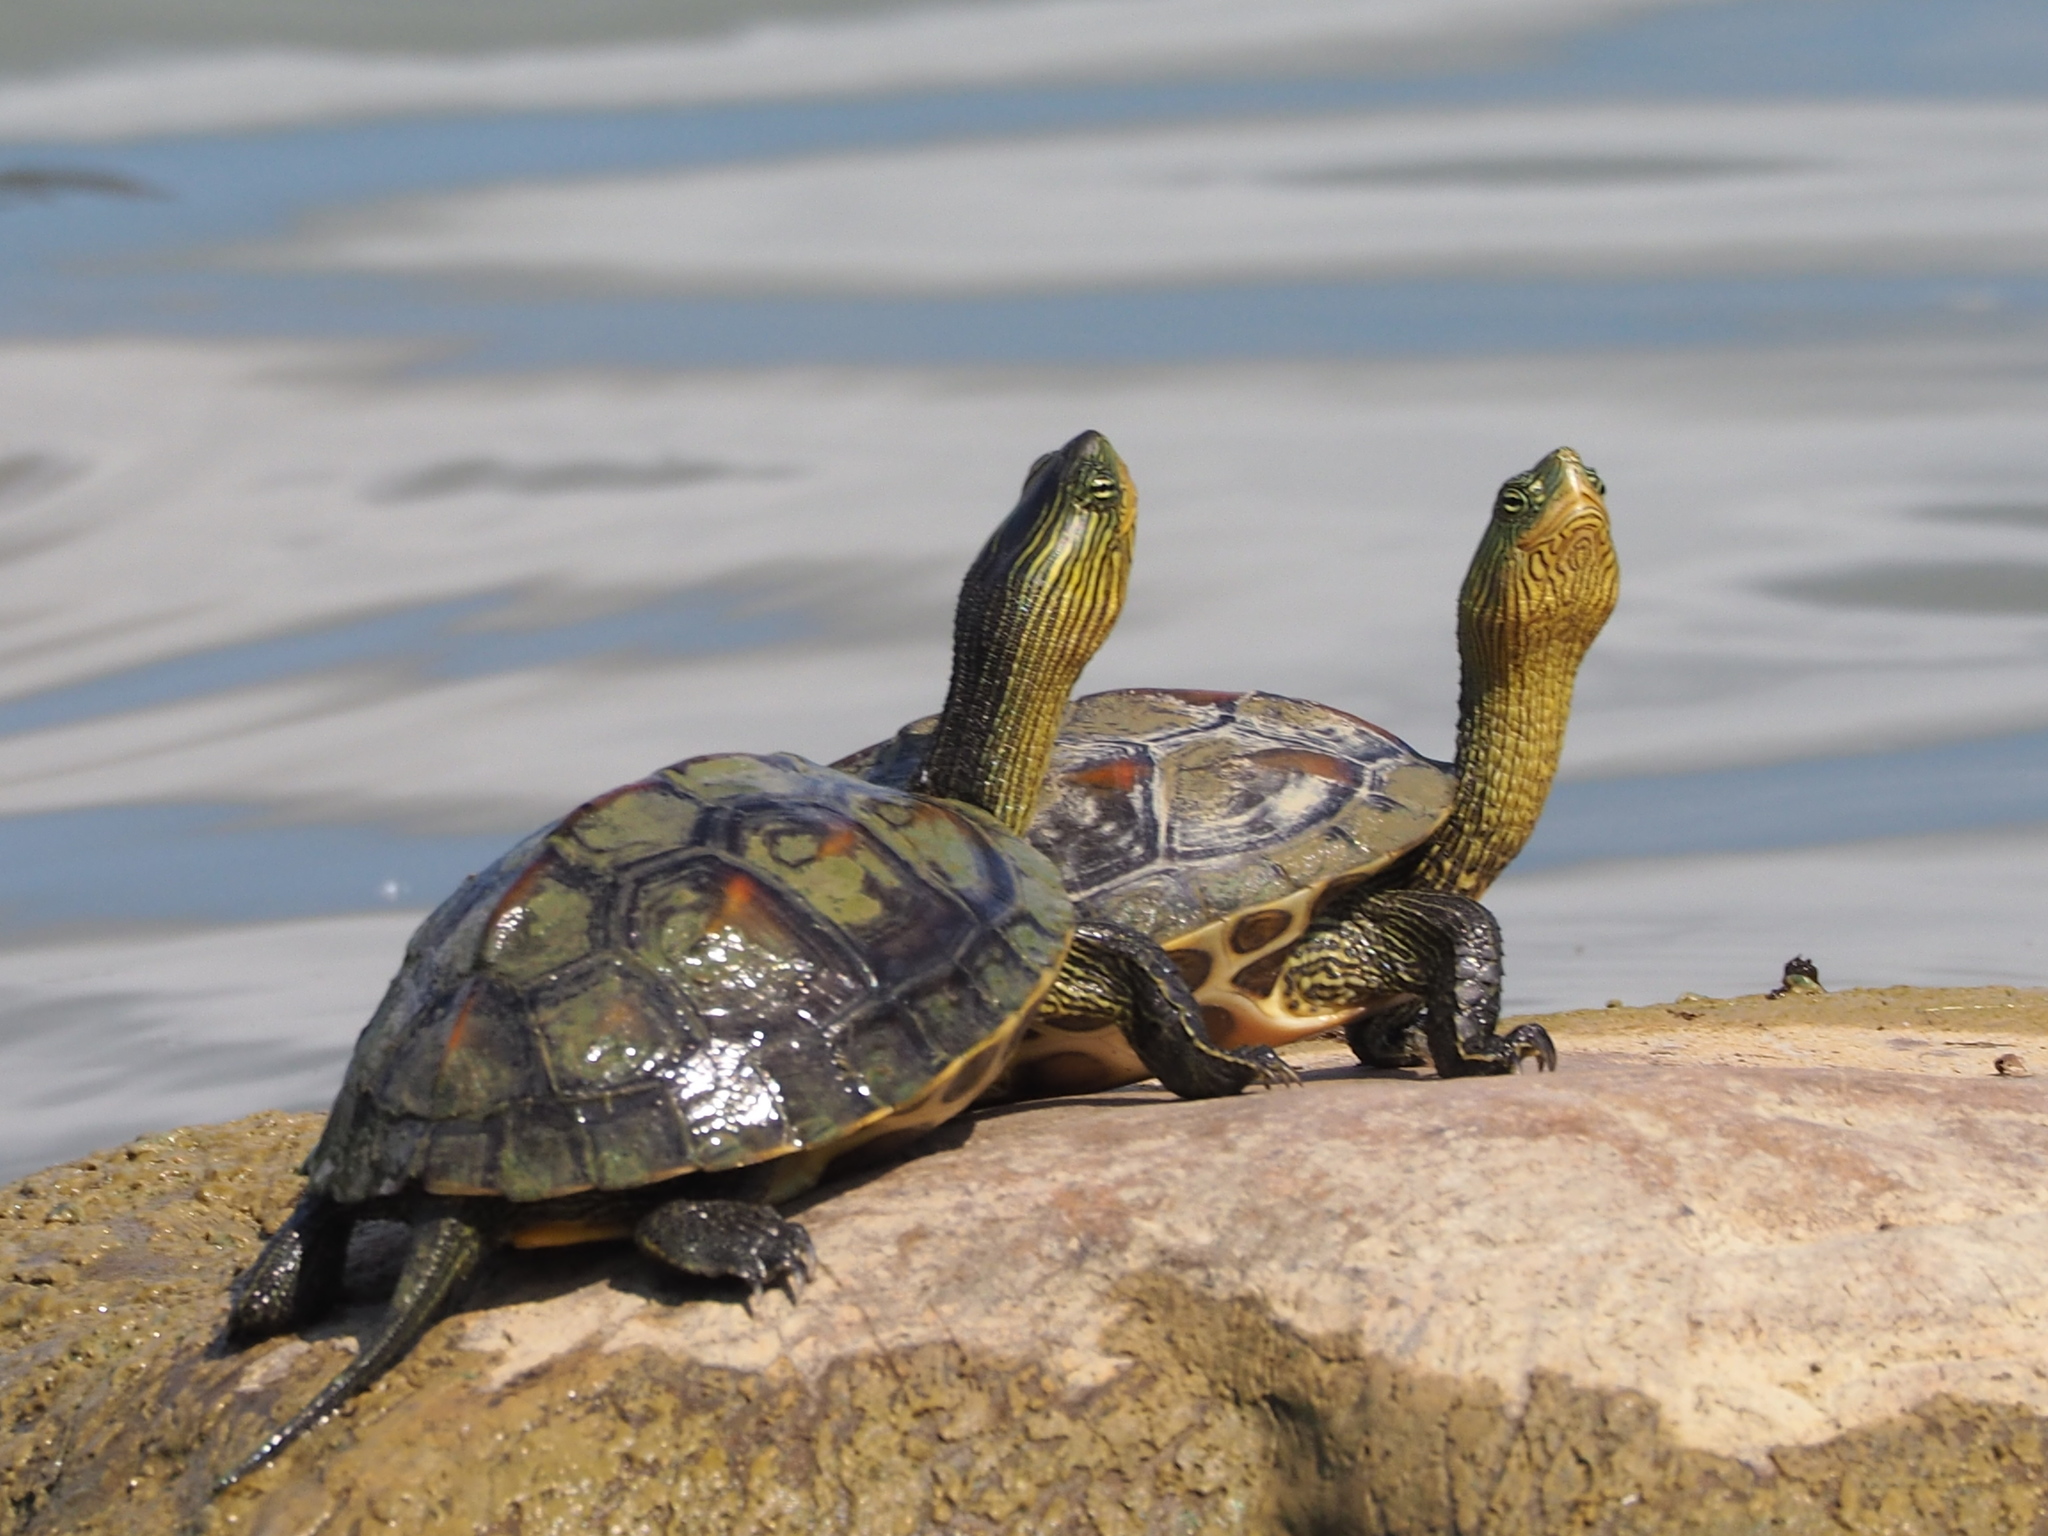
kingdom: Animalia
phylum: Chordata
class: Testudines
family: Geoemydidae
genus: Mauremys
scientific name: Mauremys sinensis
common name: Chinese stripe-necked turtle
